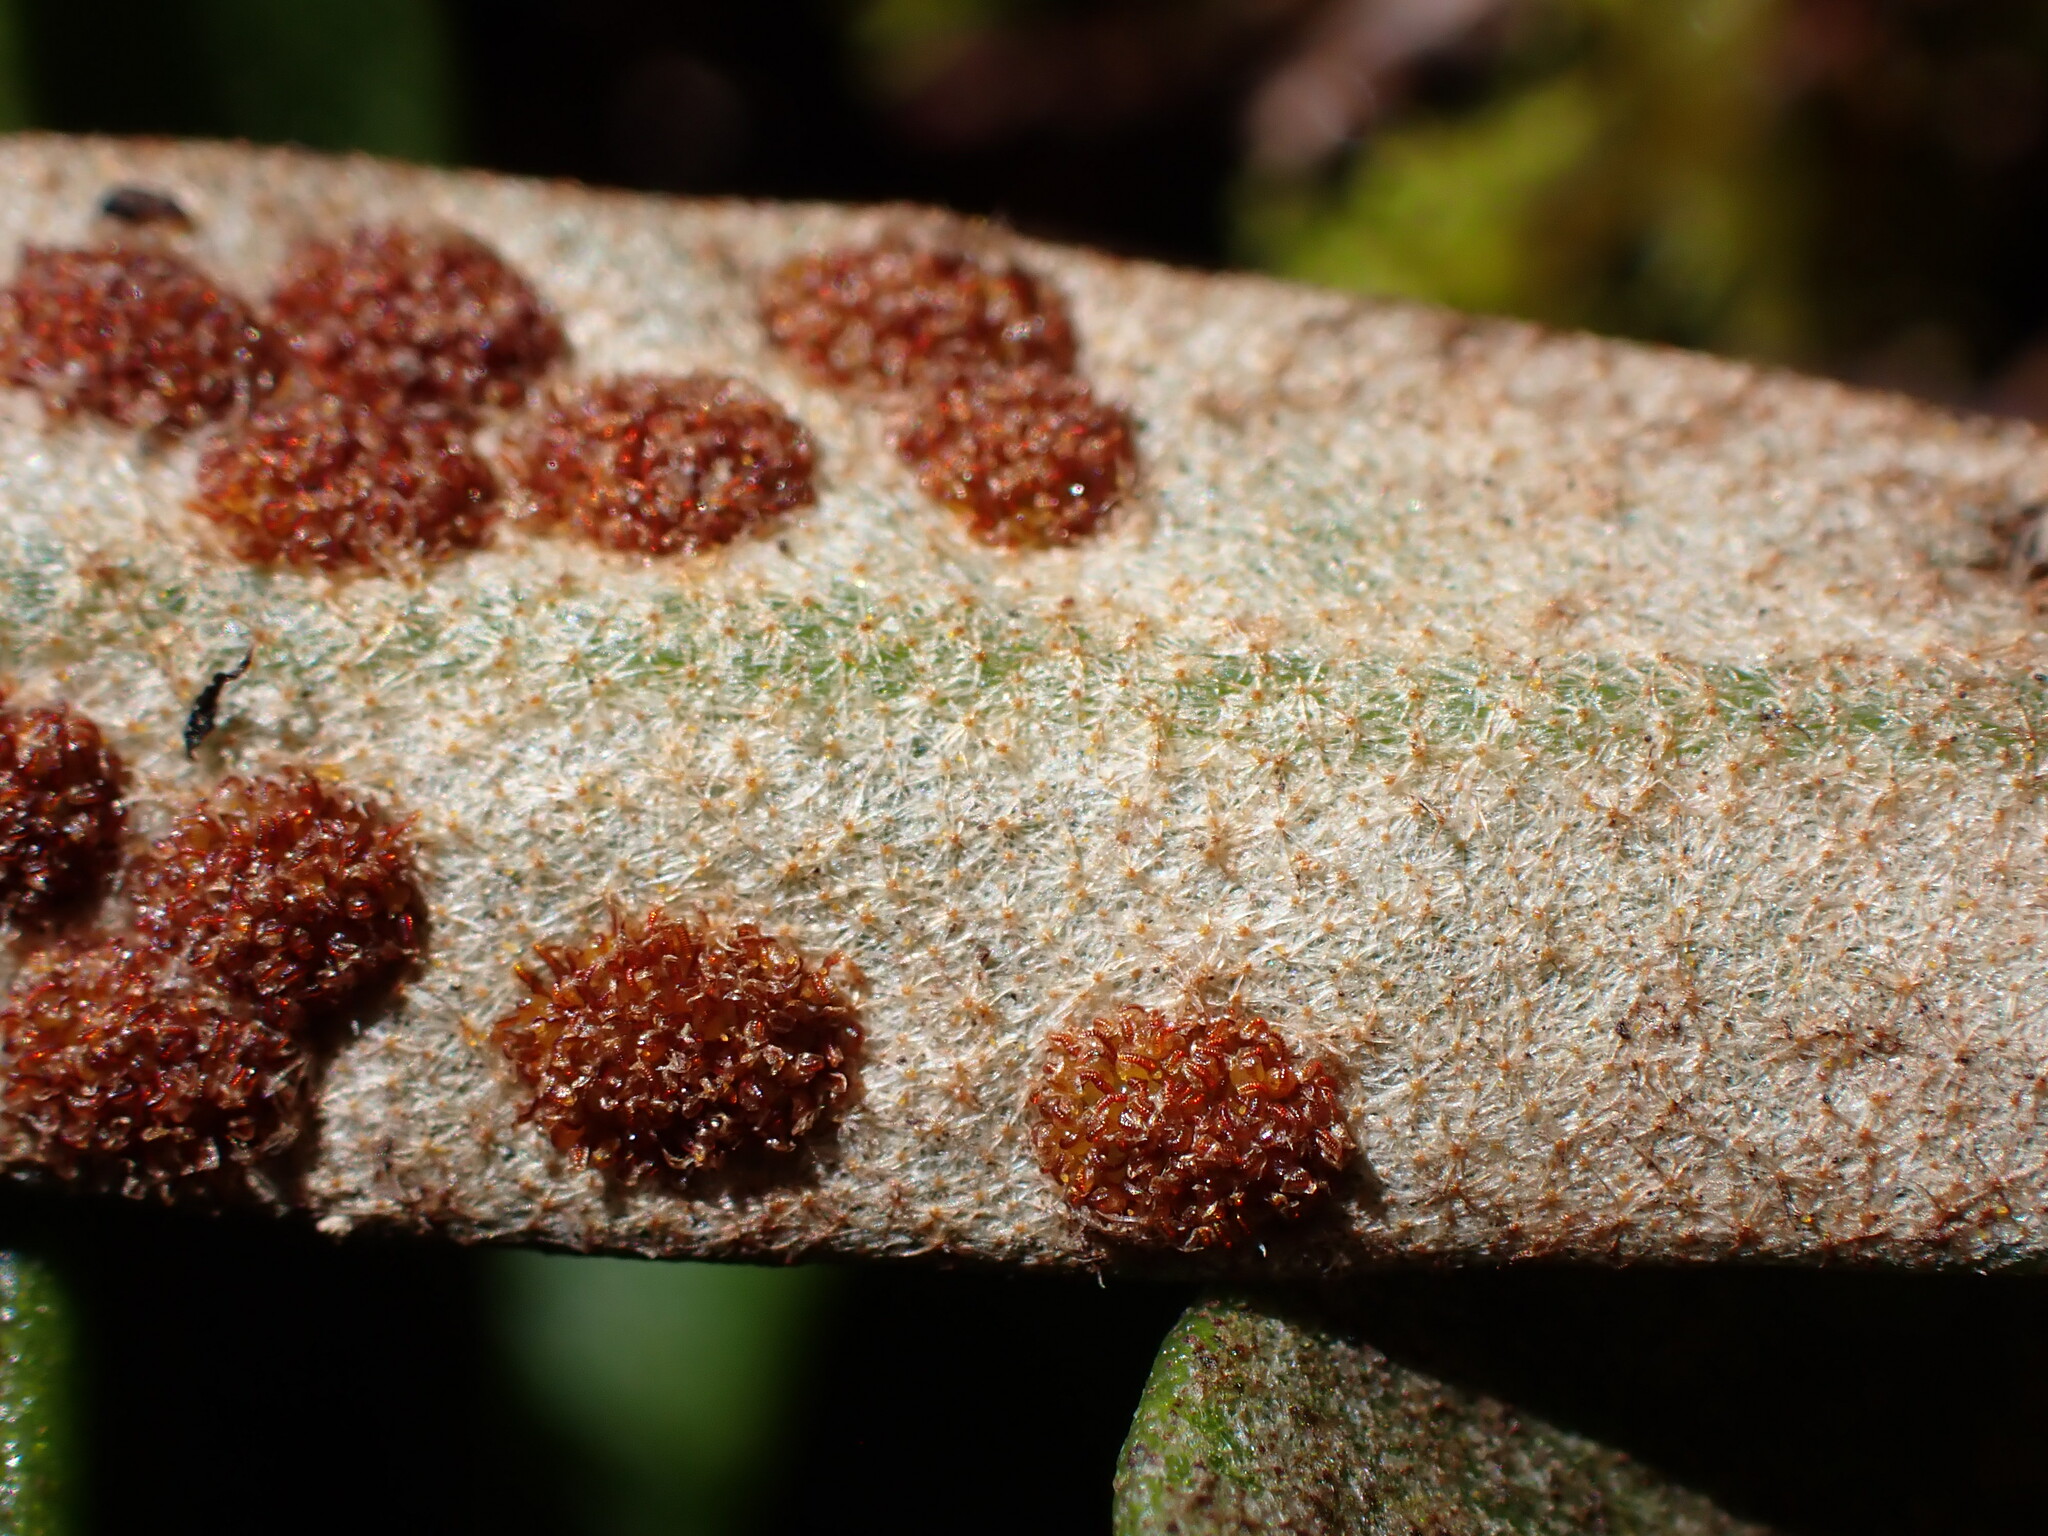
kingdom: Plantae
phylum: Tracheophyta
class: Polypodiopsida
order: Polypodiales
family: Polypodiaceae
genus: Pyrrosia
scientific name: Pyrrosia eleagnifolia
